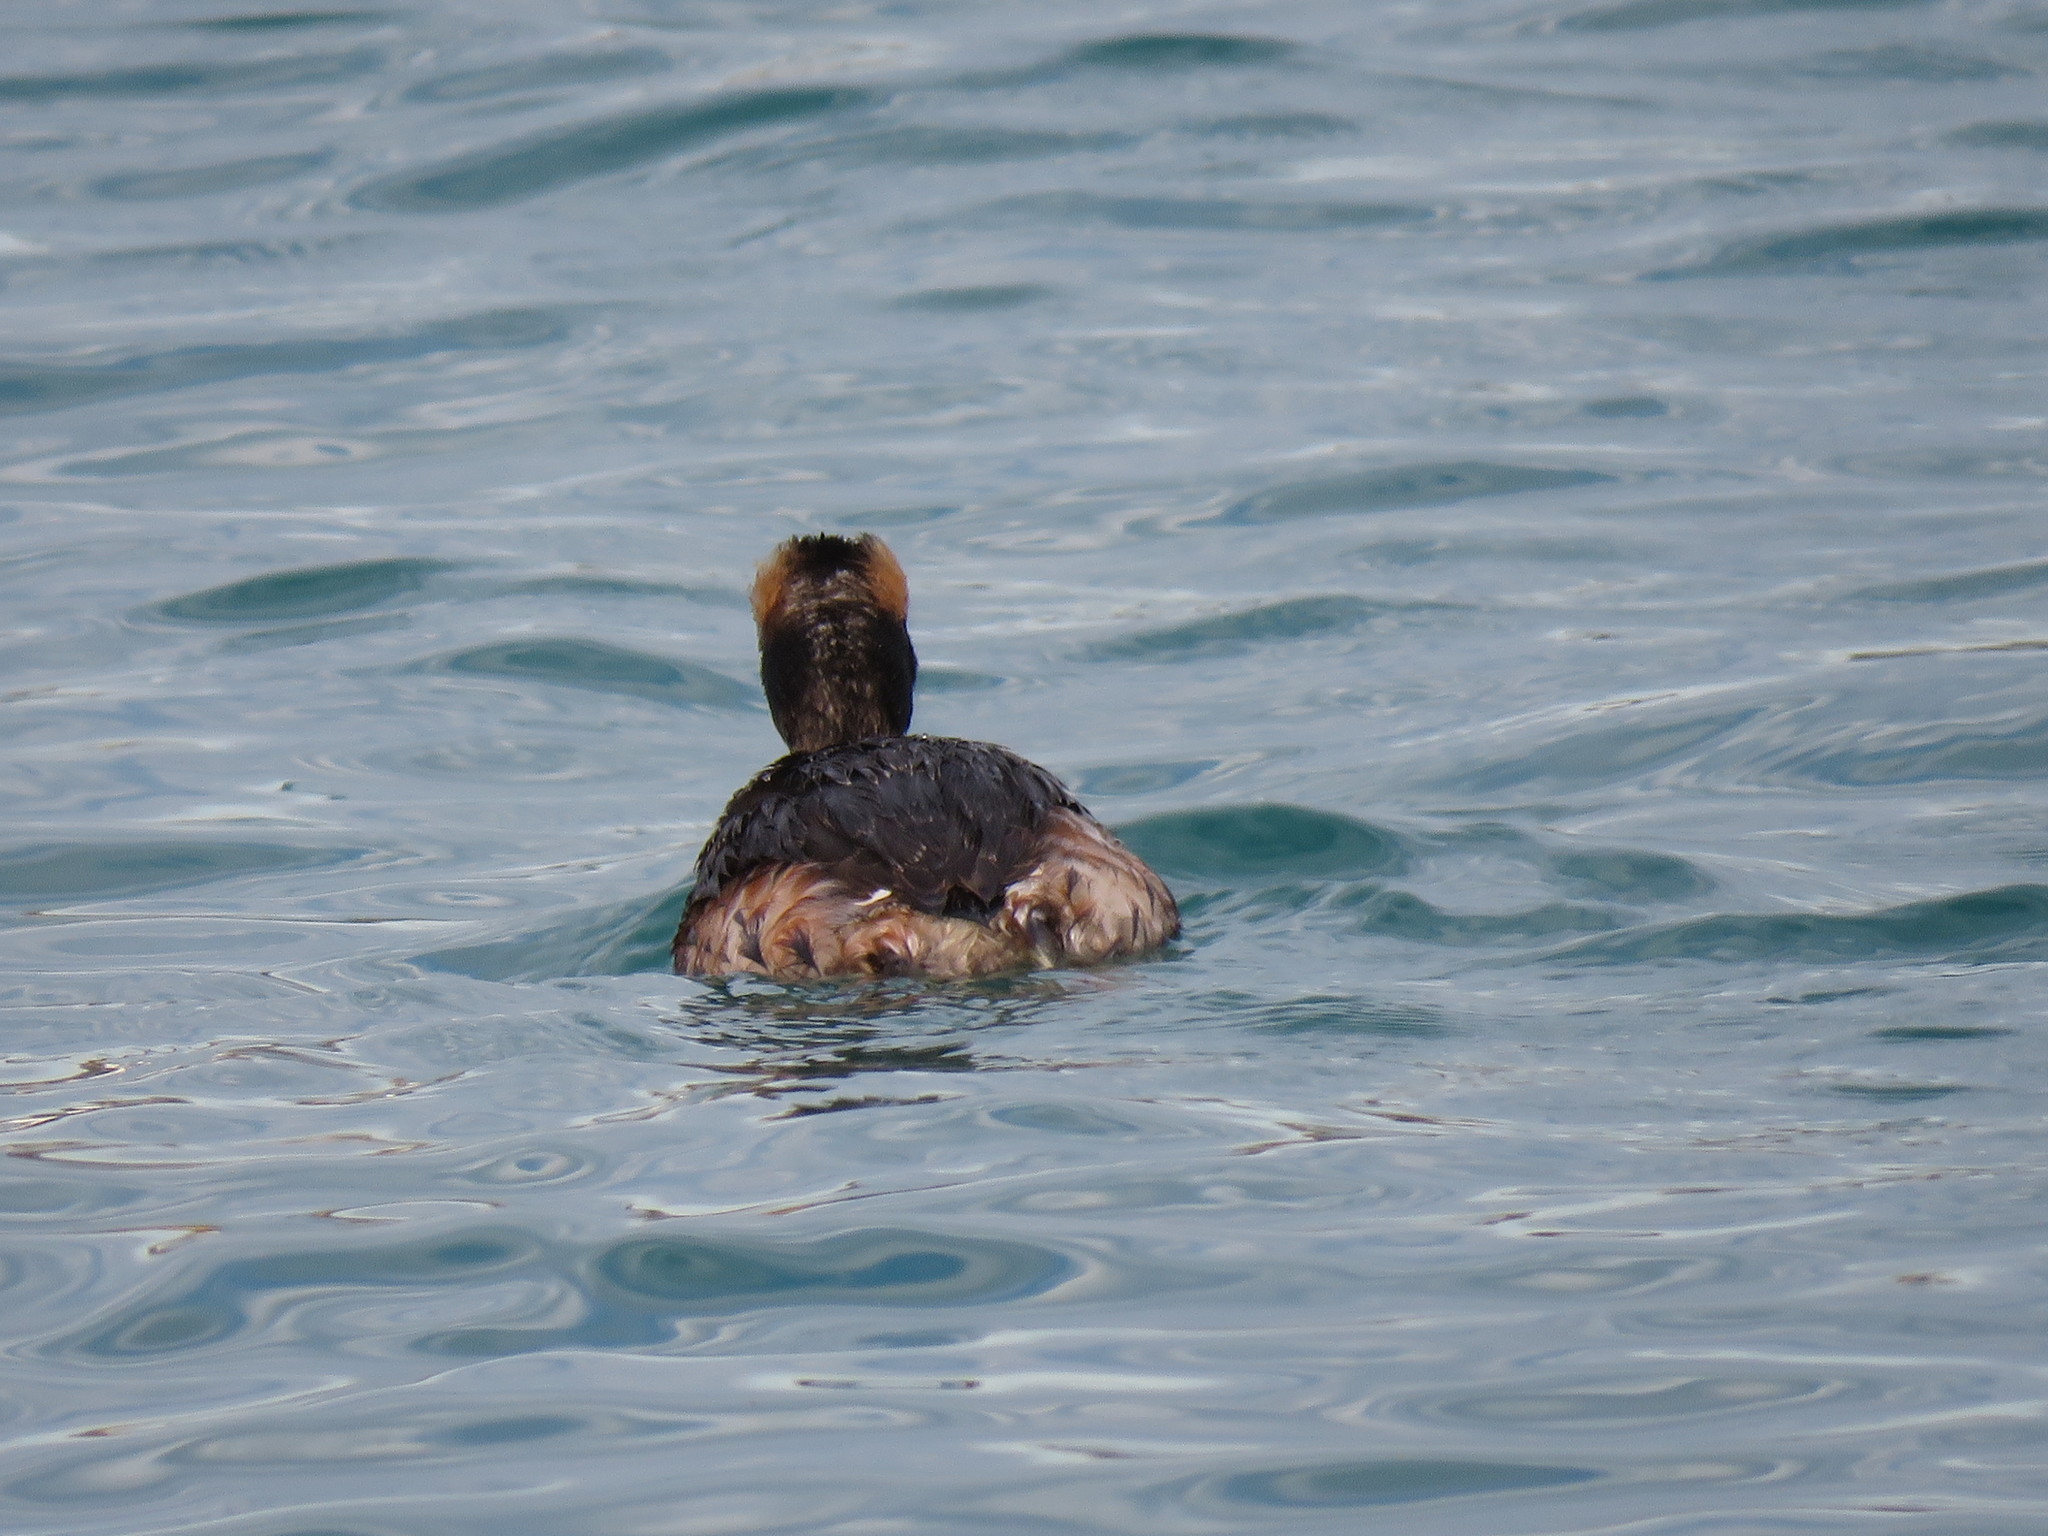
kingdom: Animalia
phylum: Chordata
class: Aves
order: Podicipediformes
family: Podicipedidae
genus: Podiceps
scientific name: Podiceps auritus
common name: Horned grebe
